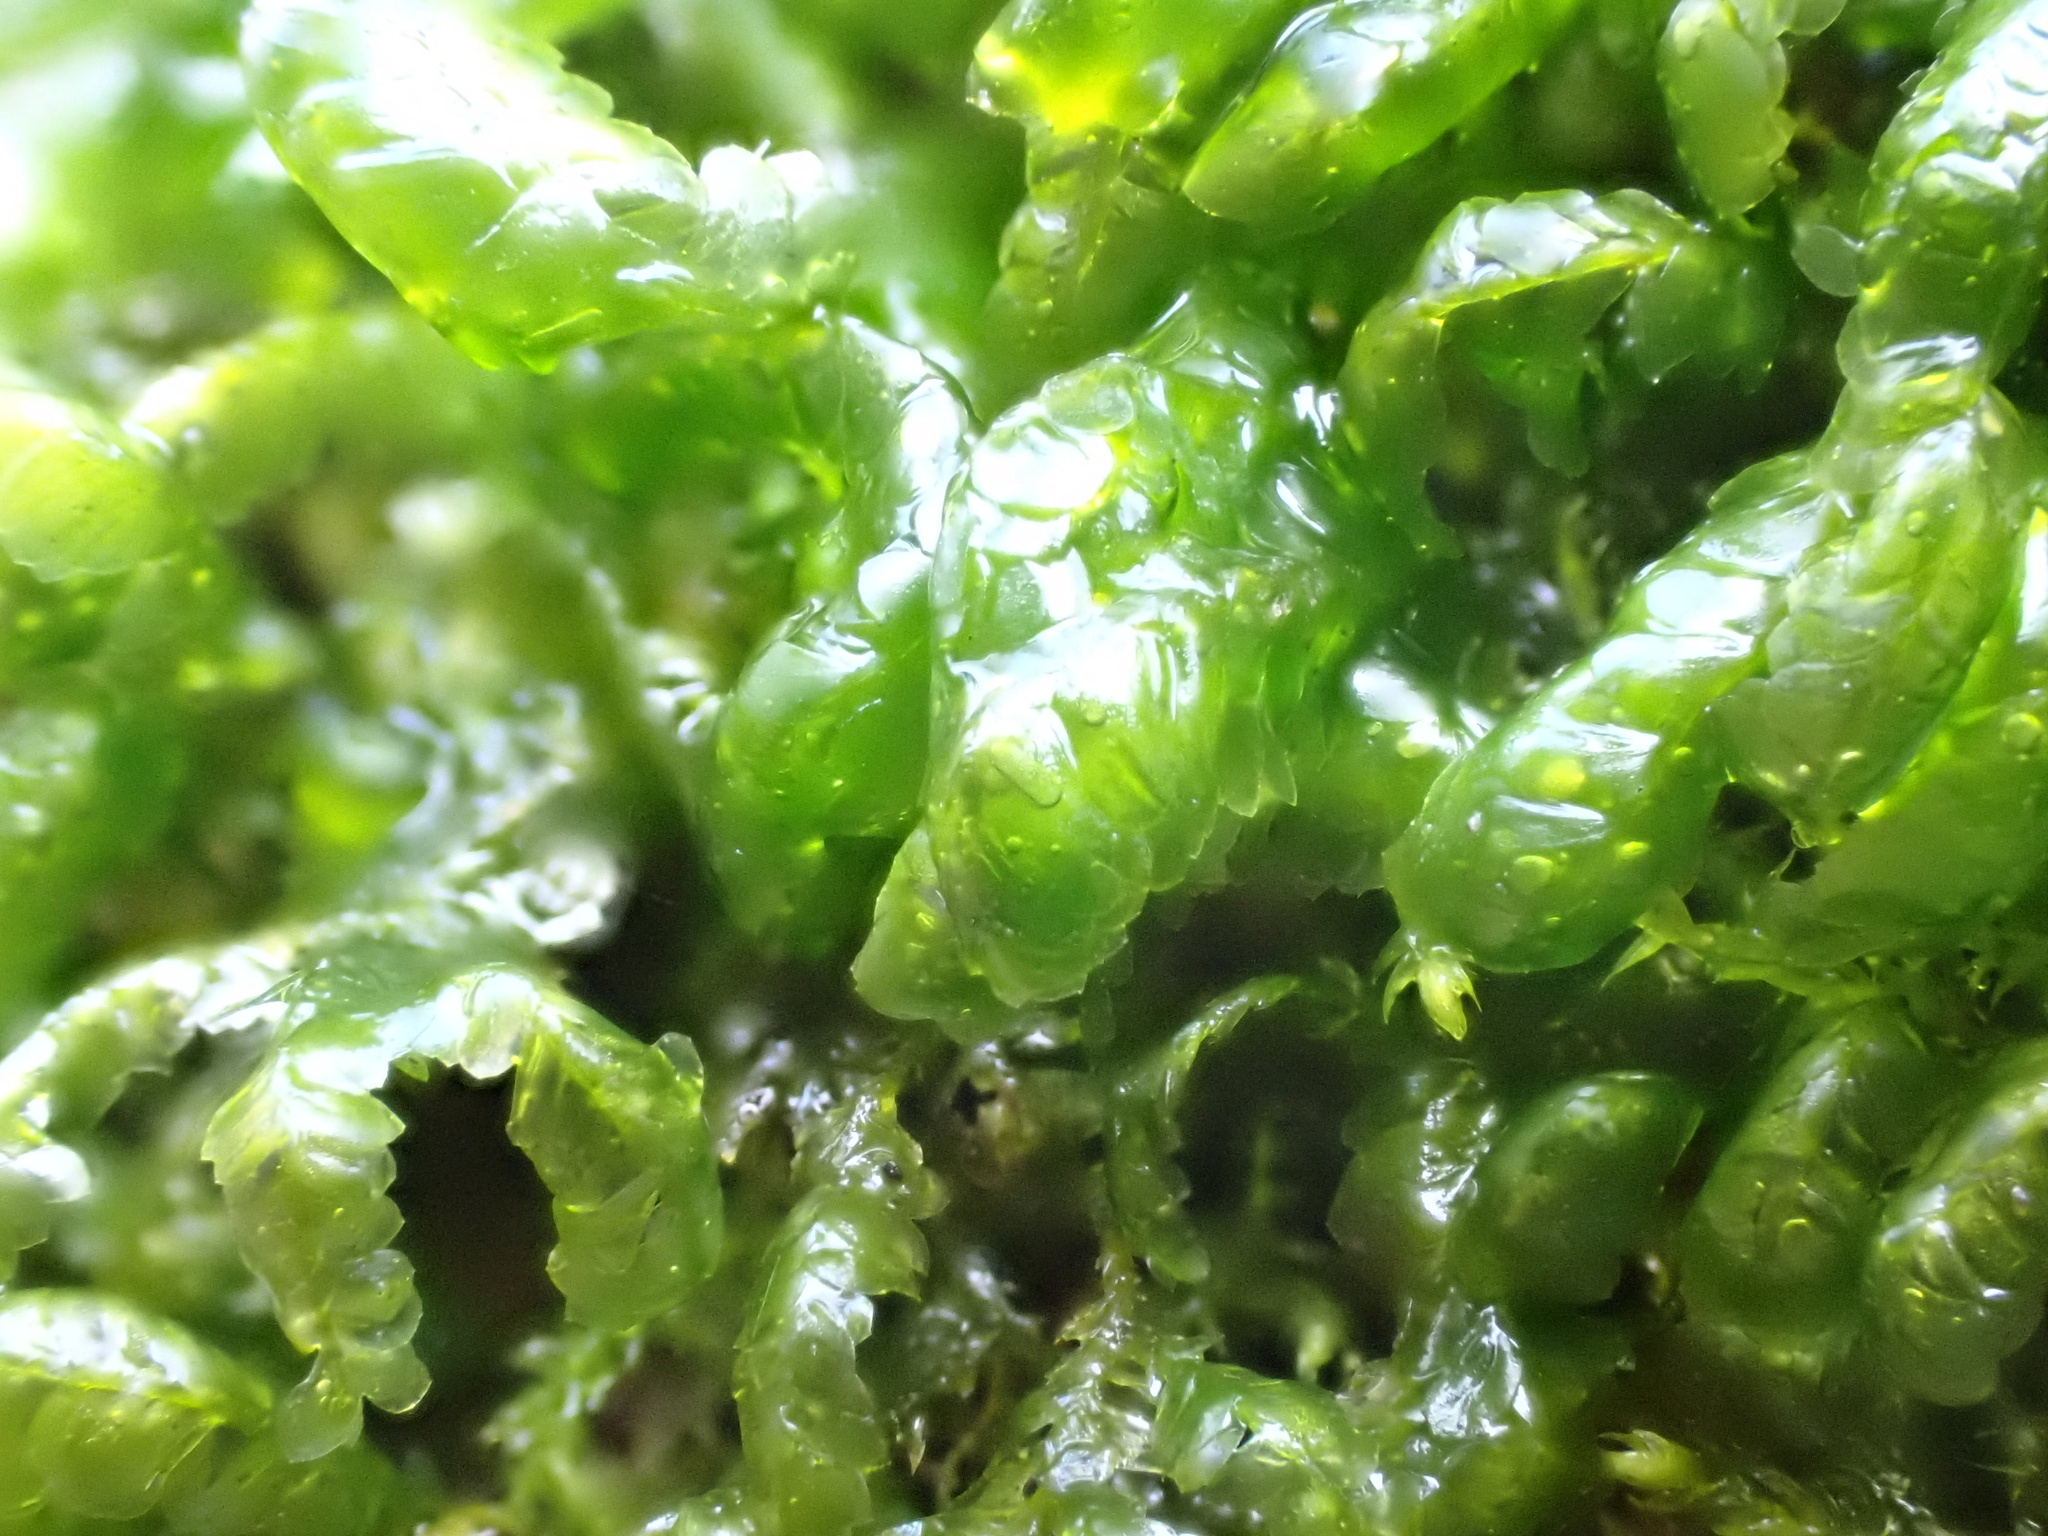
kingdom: Plantae
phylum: Bryophyta
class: Bryopsida
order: Hypnales
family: Neckeraceae
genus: Homalia
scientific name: Homalia trichomanoides
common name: Lime homalia moss
